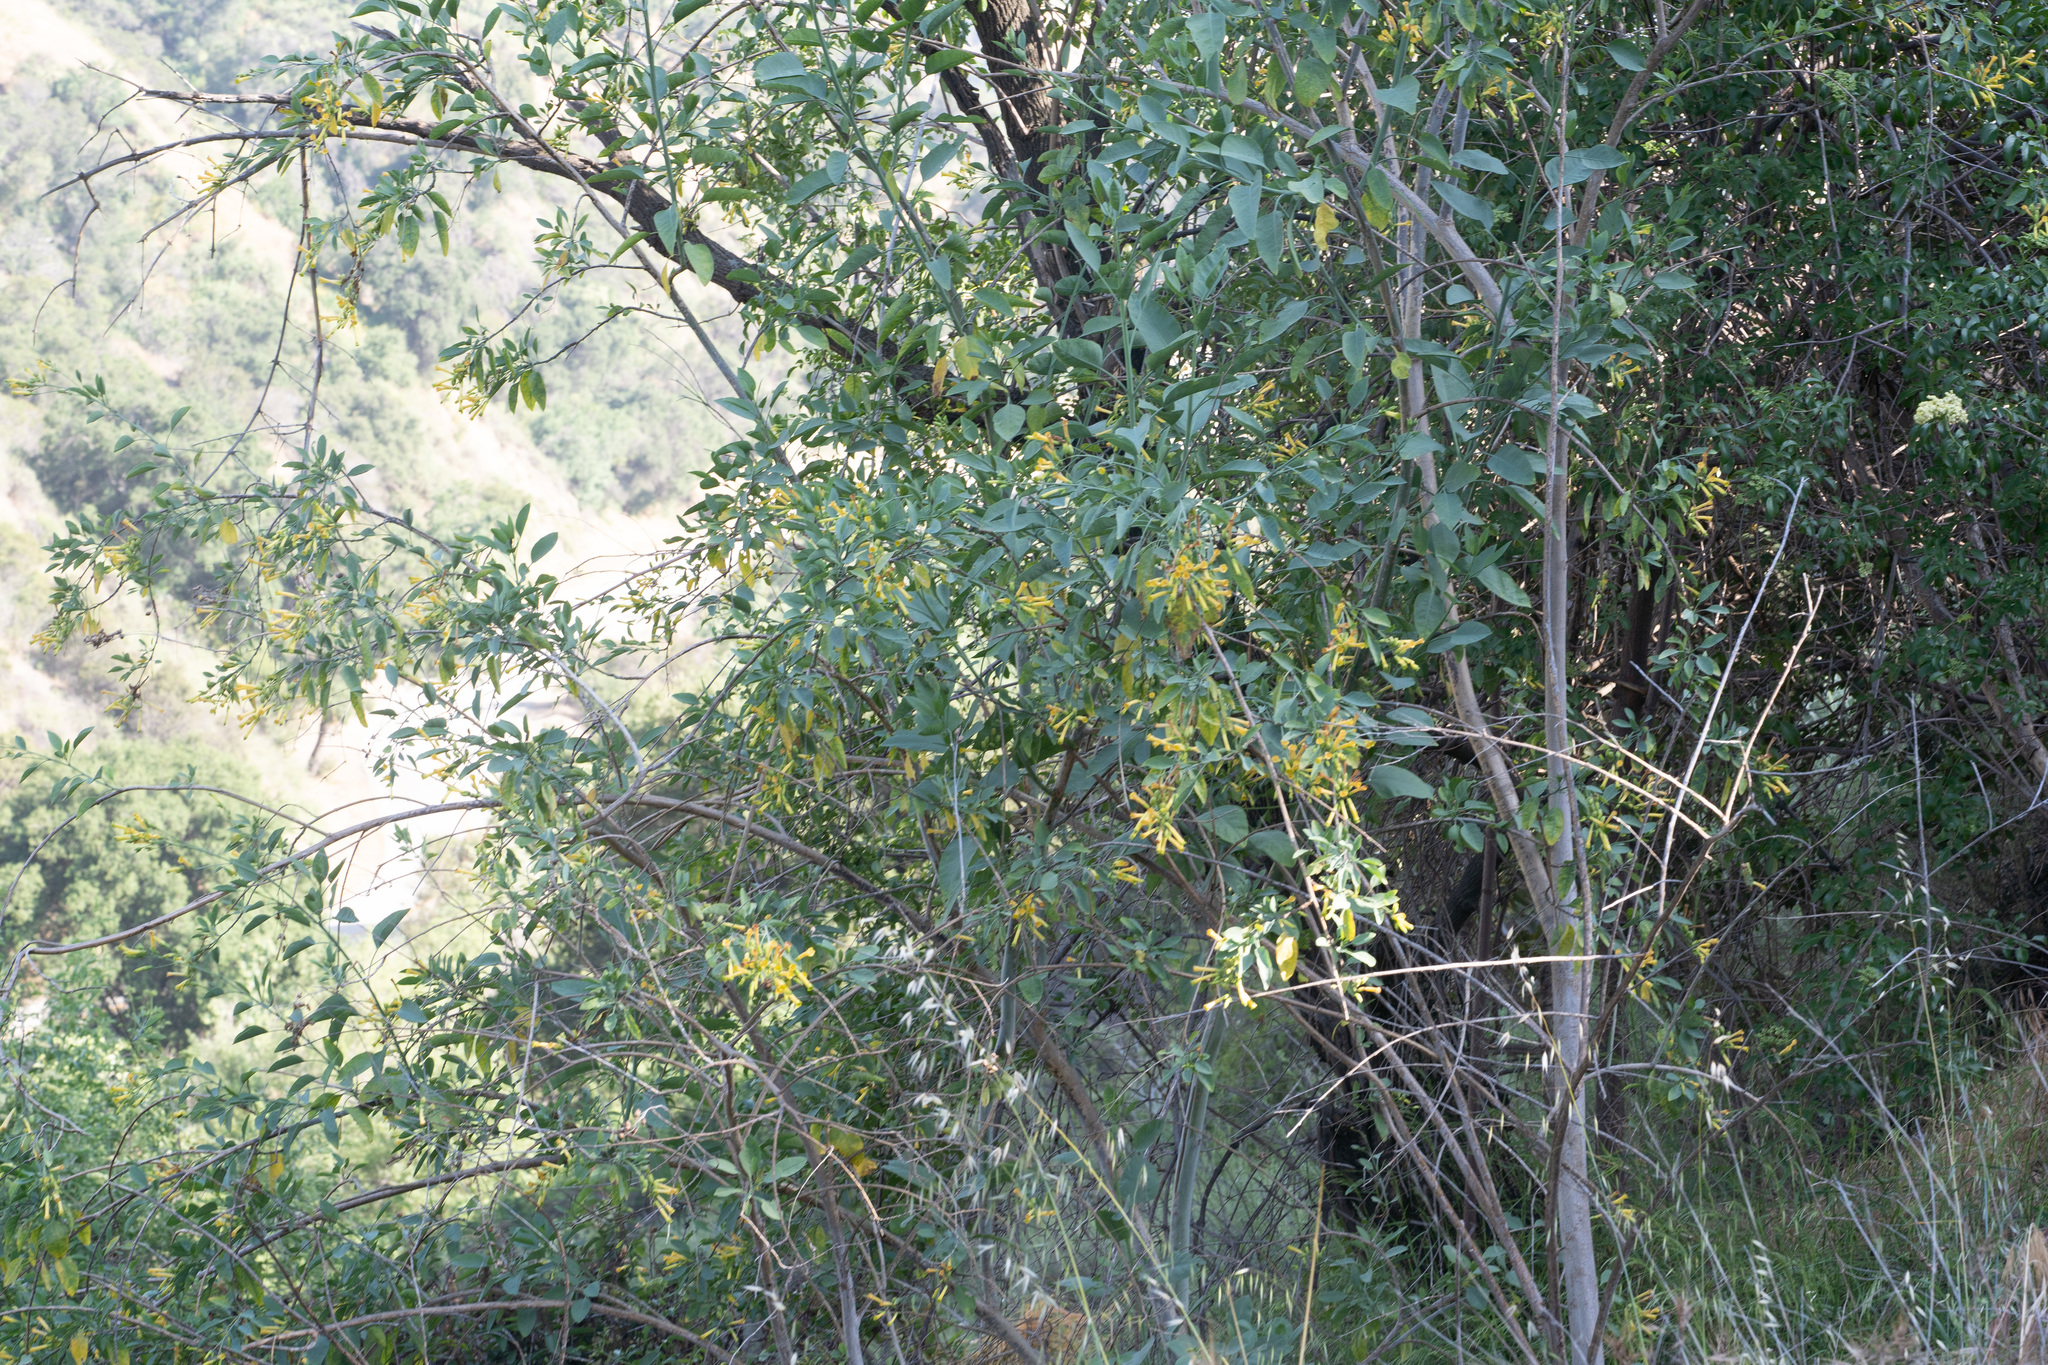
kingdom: Plantae
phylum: Tracheophyta
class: Magnoliopsida
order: Solanales
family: Solanaceae
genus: Nicotiana
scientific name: Nicotiana glauca
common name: Tree tobacco
